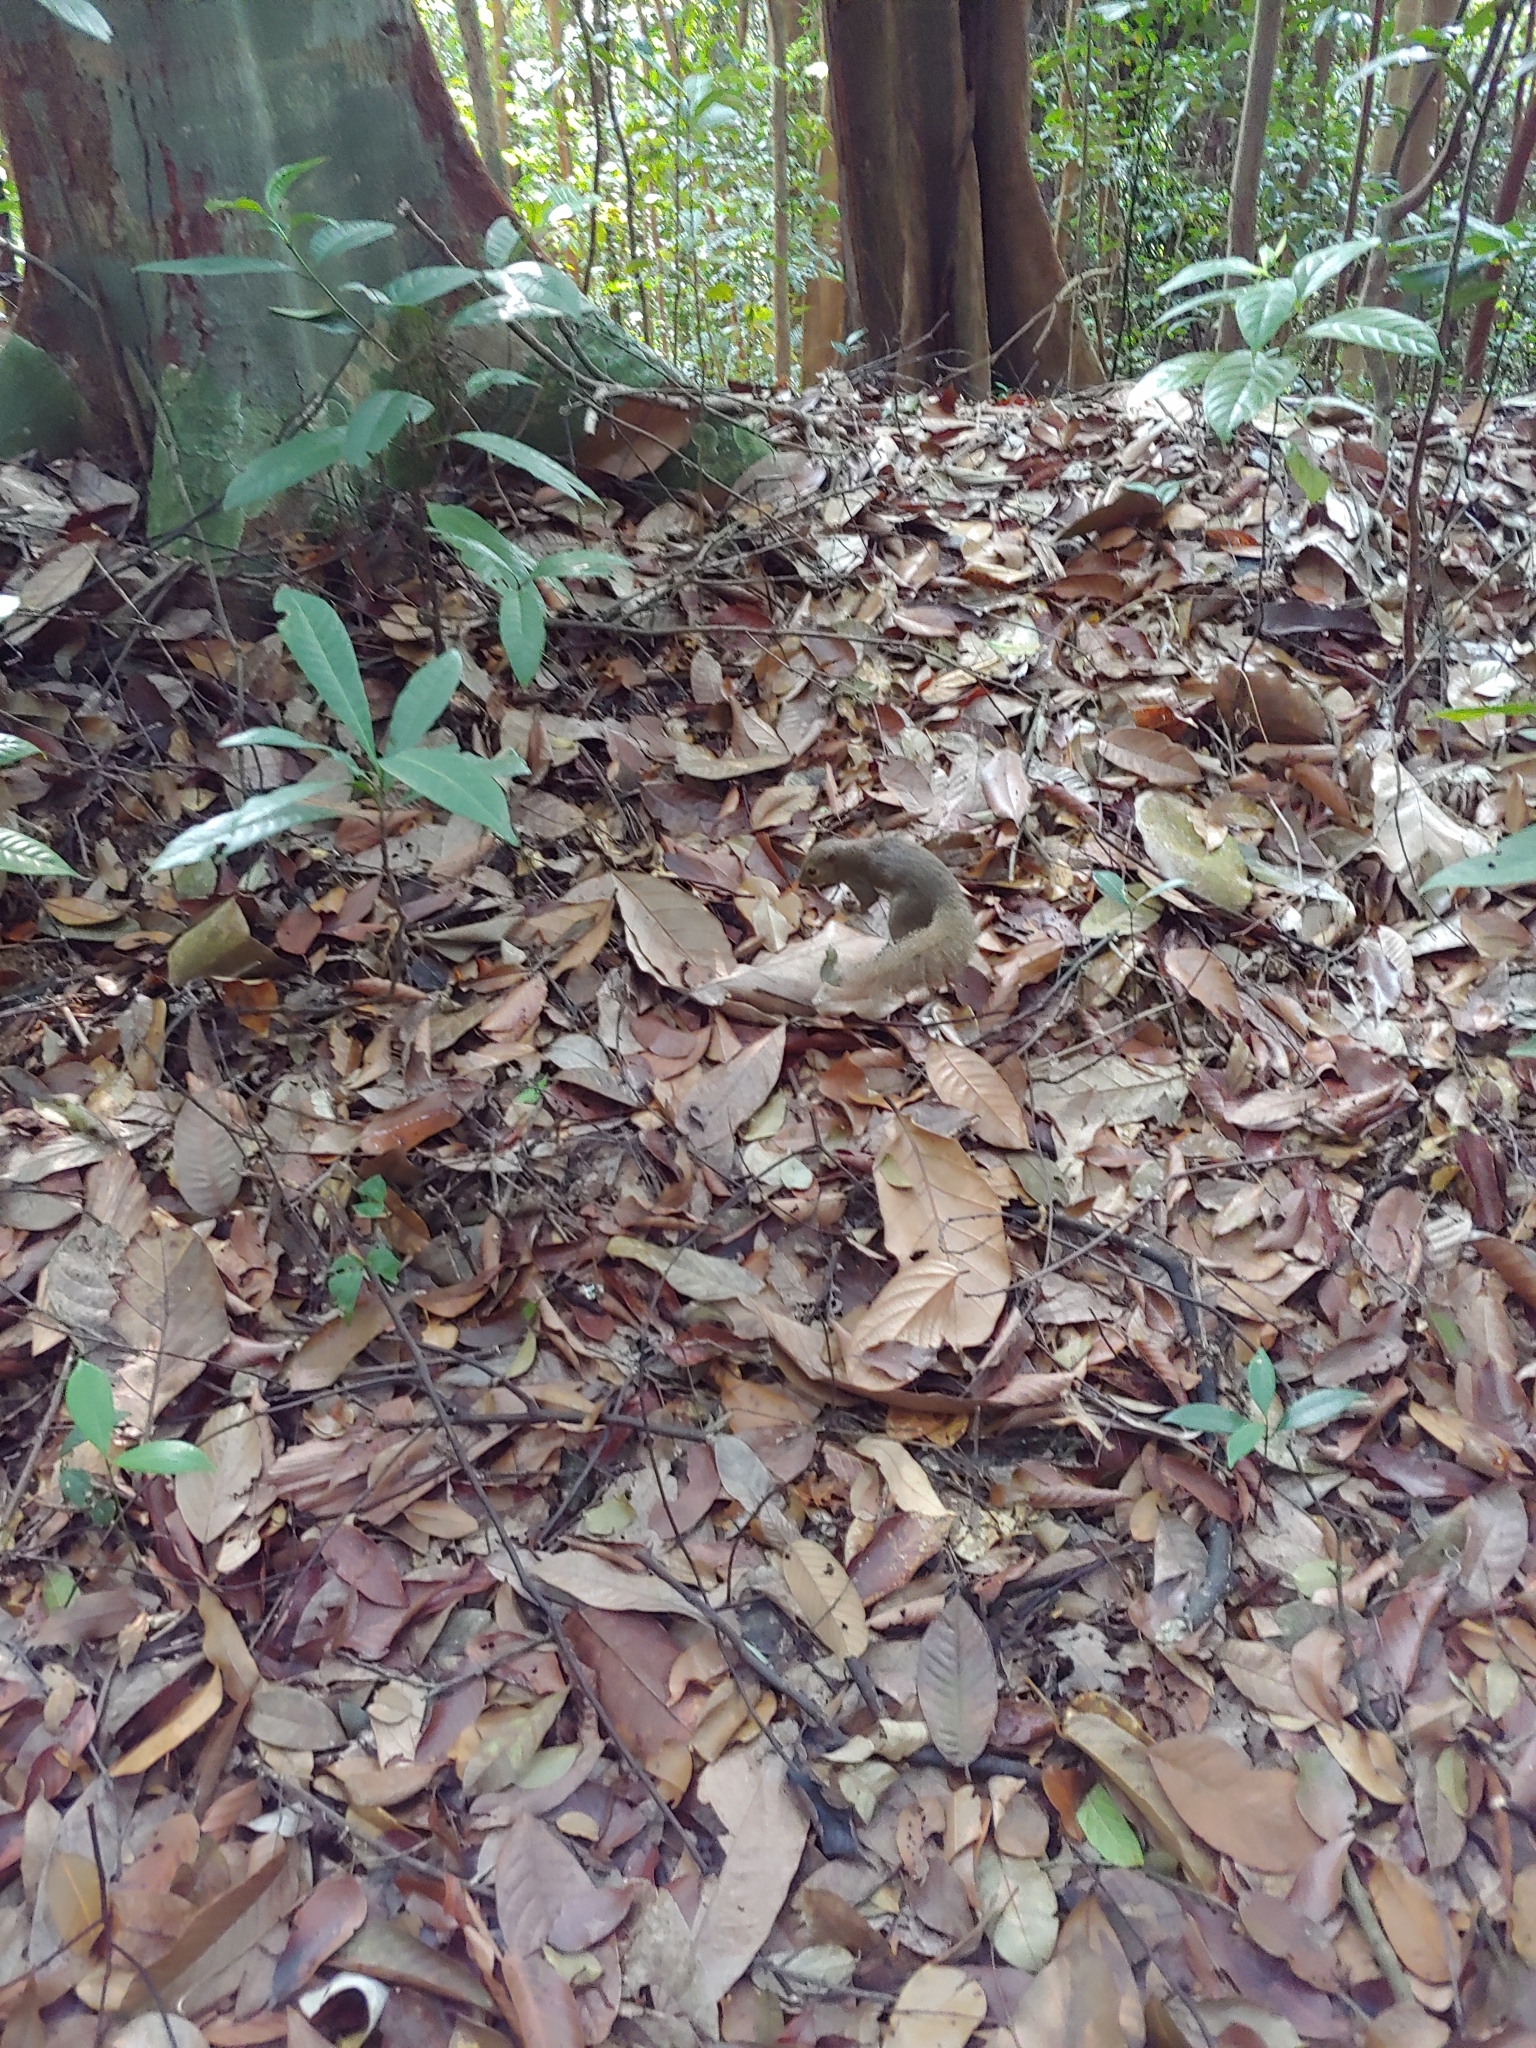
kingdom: Animalia
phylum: Chordata
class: Mammalia
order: Rodentia
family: Sciuridae
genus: Callosciurus
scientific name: Callosciurus notatus
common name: Plantain squirrel
